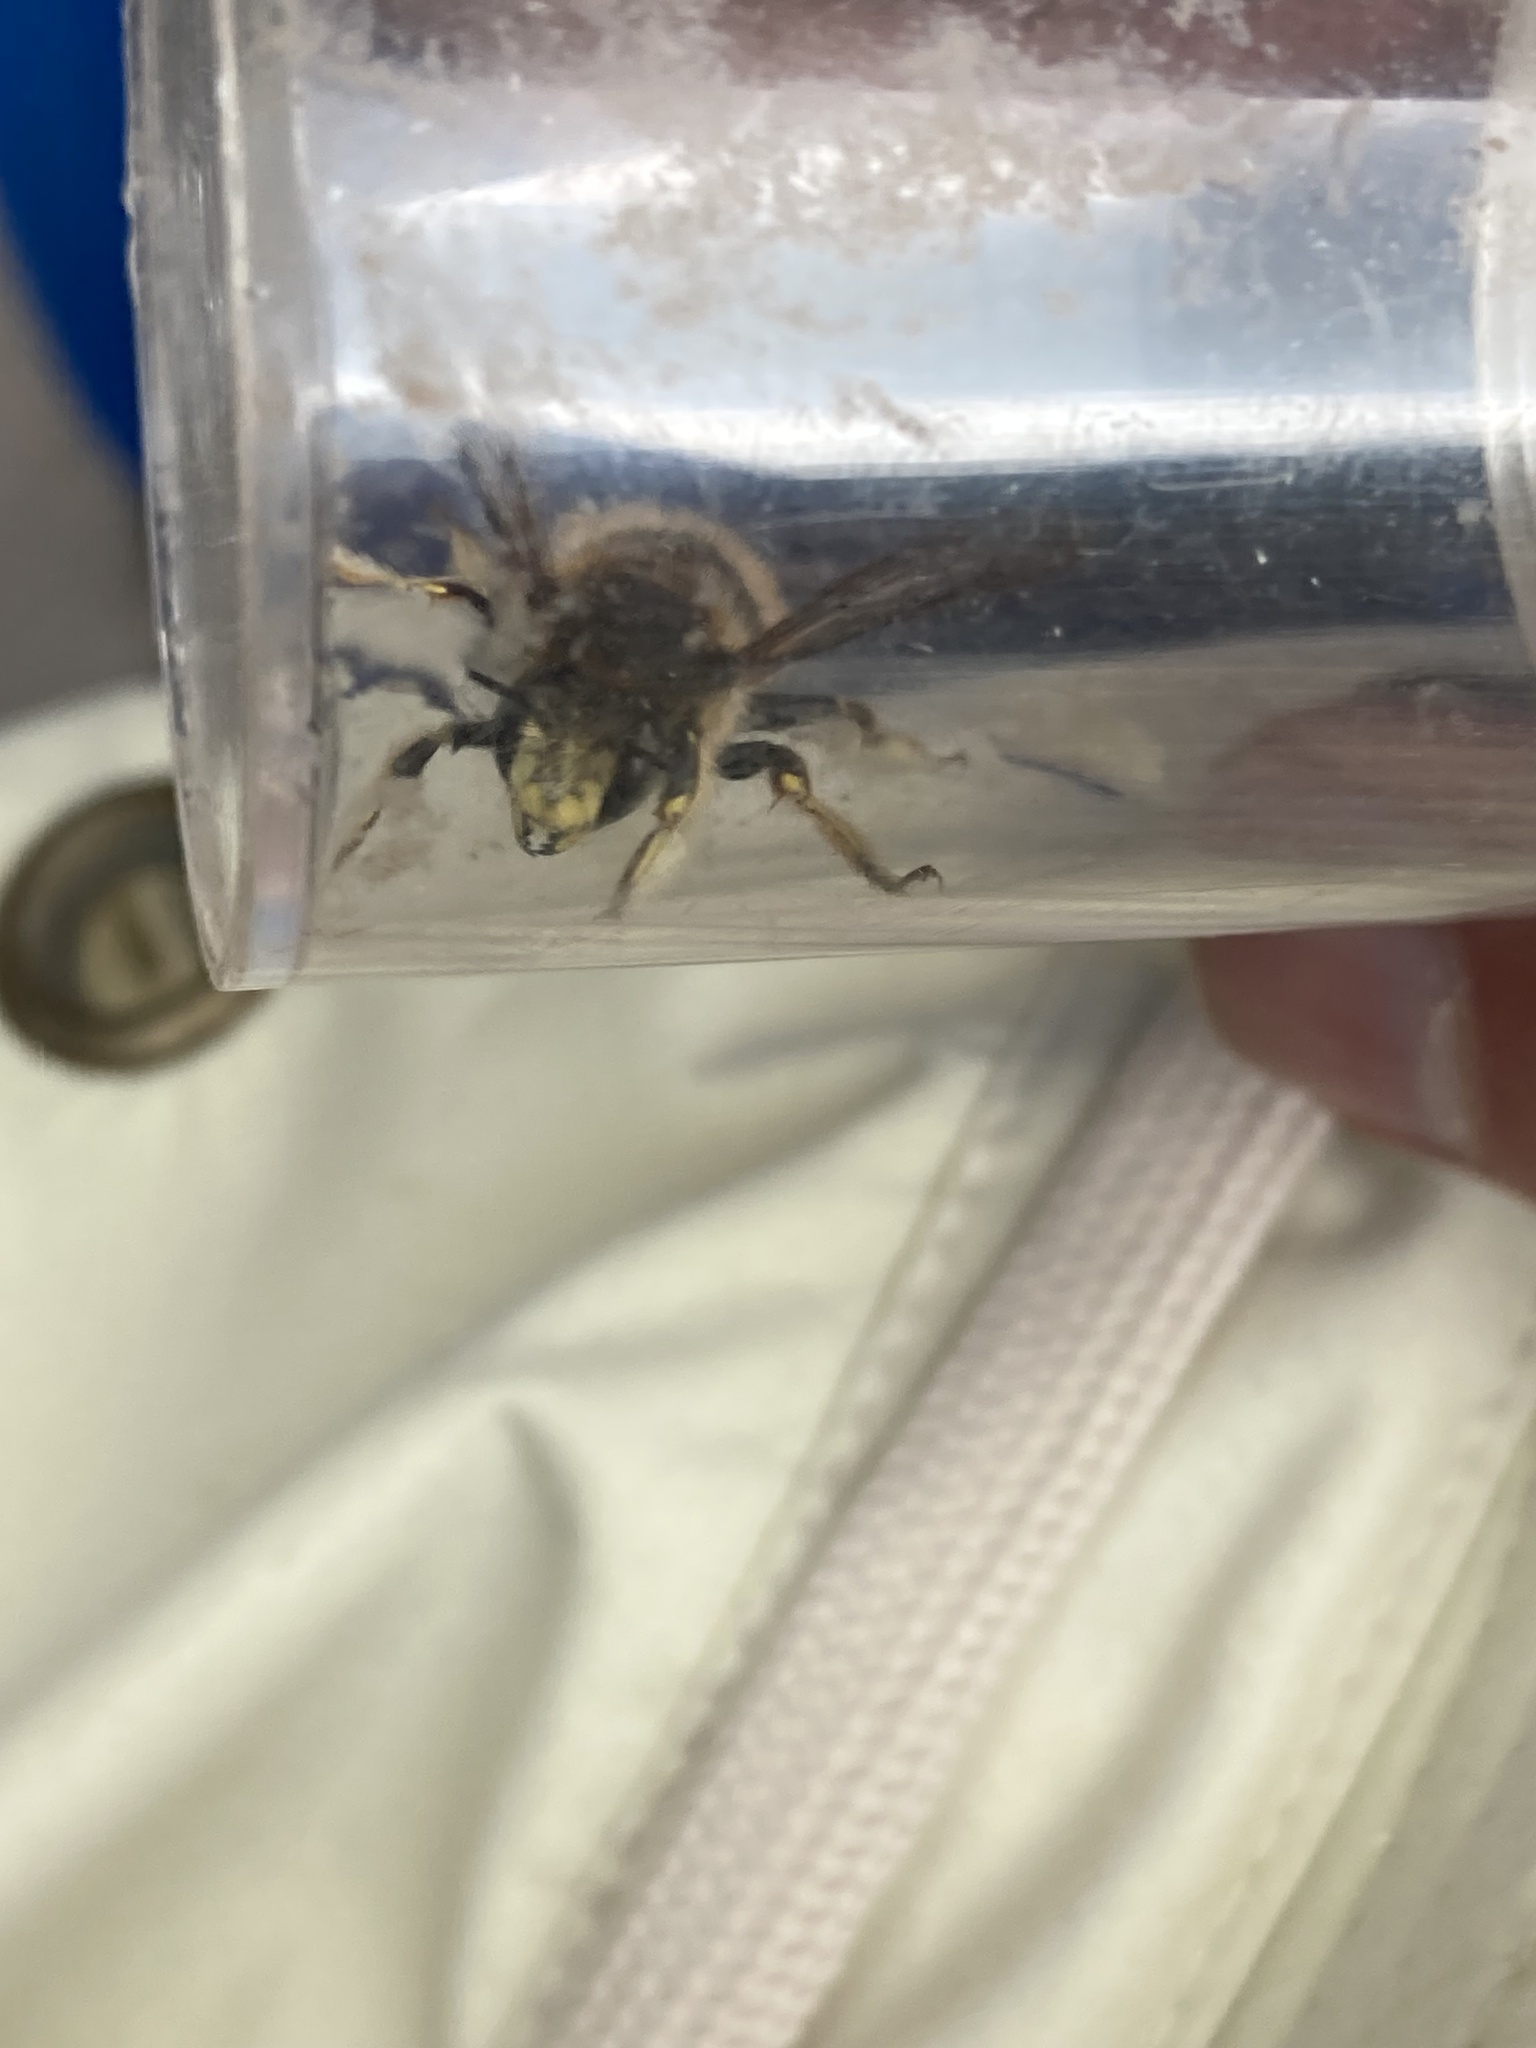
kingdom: Animalia
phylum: Arthropoda
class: Insecta
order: Hymenoptera
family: Megachilidae
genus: Anthidium
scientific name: Anthidium manicatum
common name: Wool carder bee
